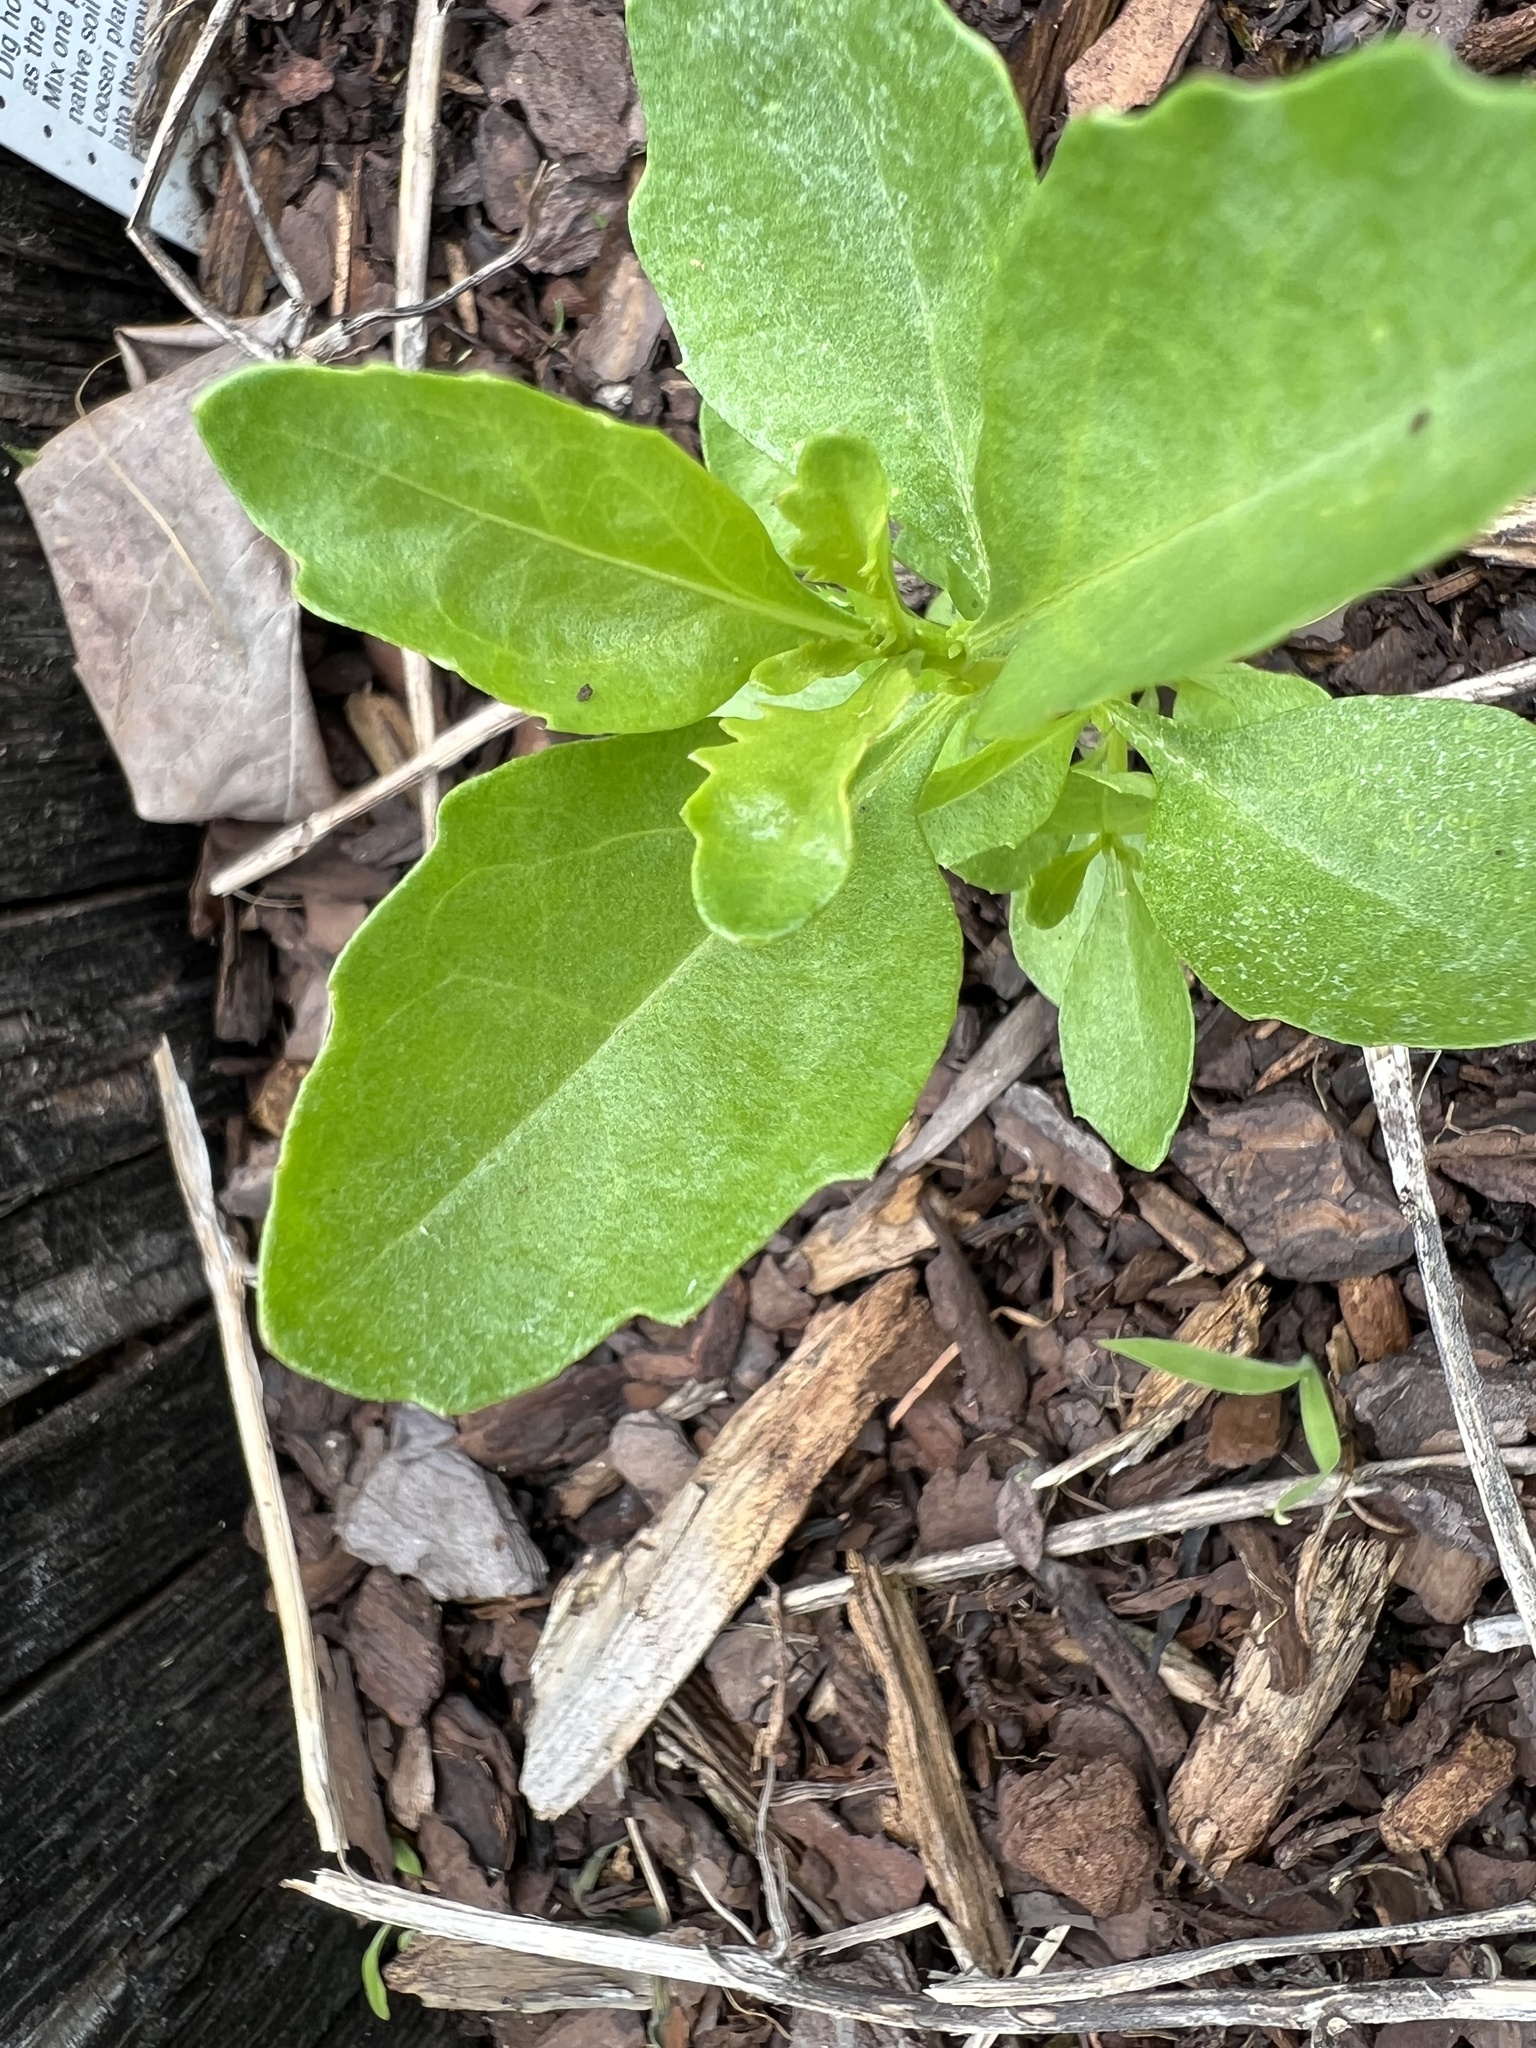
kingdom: Plantae
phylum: Tracheophyta
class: Magnoliopsida
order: Asterales
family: Asteraceae
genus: Baccharis
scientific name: Baccharis halimifolia
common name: Eastern baccharis
